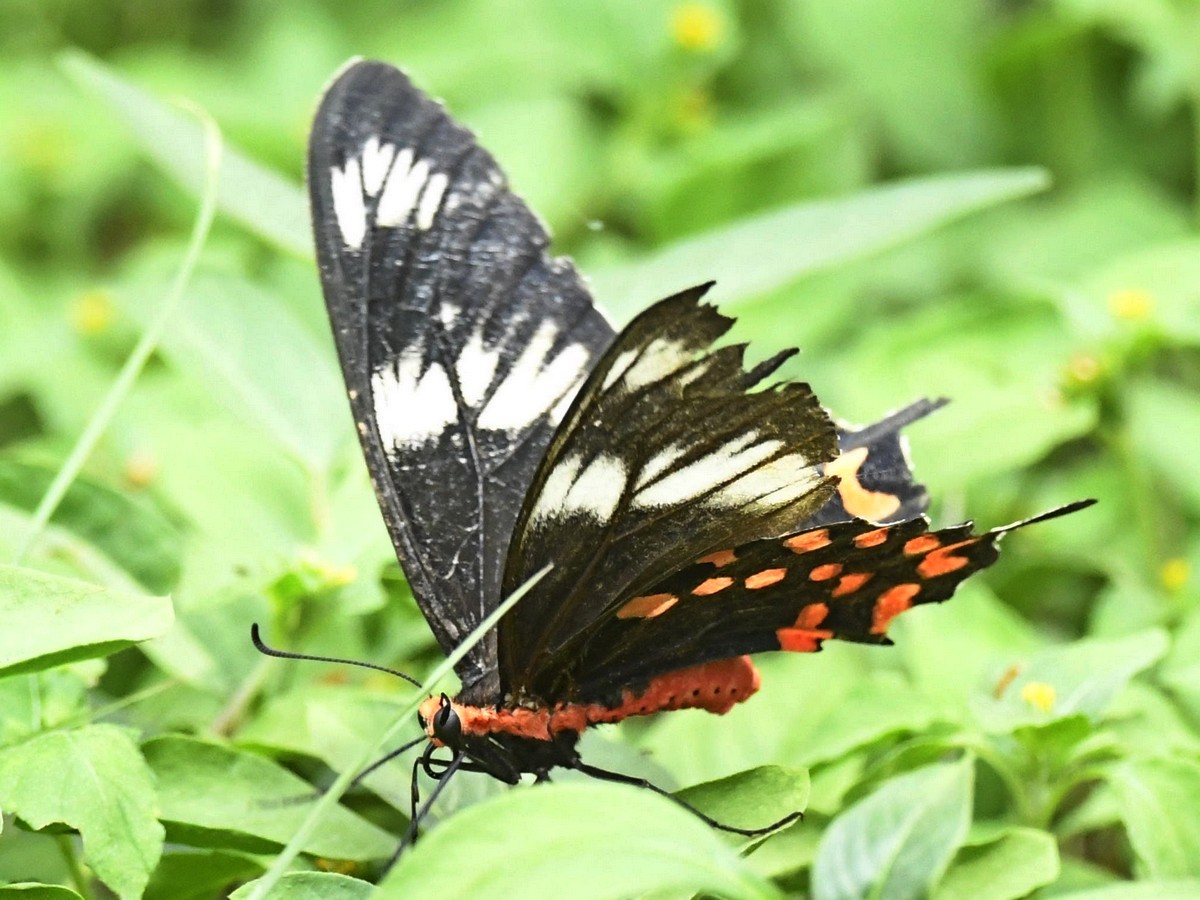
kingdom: Animalia
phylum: Arthropoda
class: Insecta
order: Lepidoptera
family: Papilionidae
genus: Pachliopta
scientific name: Pachliopta hector
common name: Crimson rose
